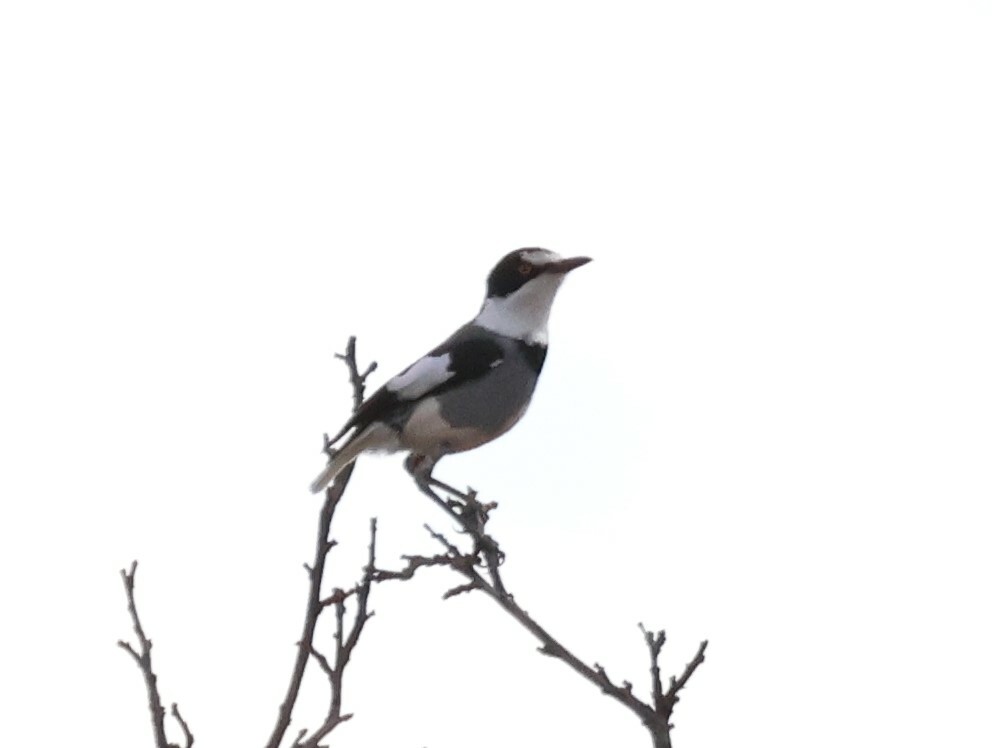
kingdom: Animalia
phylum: Chordata
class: Aves
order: Passeriformes
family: Platysteiridae
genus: Lanioturdus
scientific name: Lanioturdus torquatus
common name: White-tailed shrike
